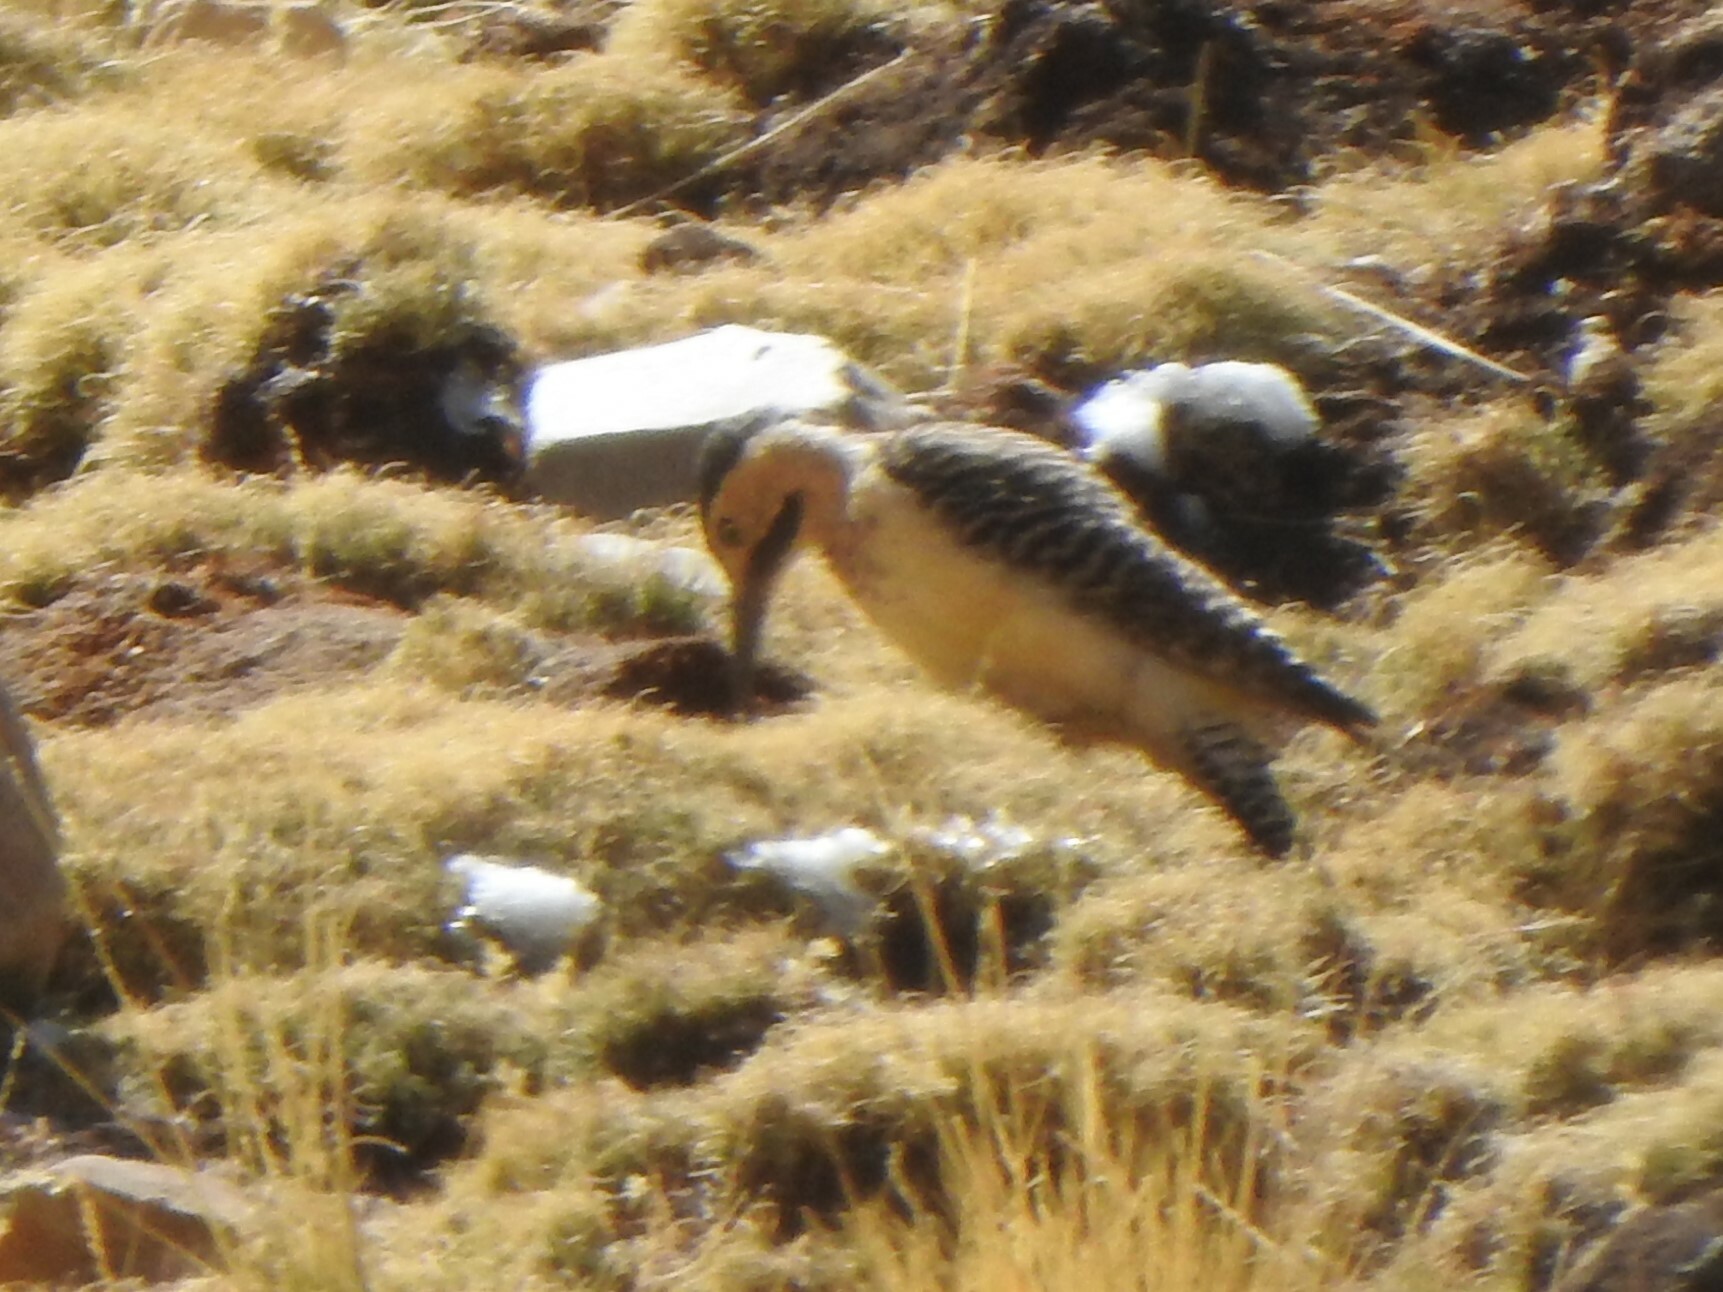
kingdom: Animalia
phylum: Chordata
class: Aves
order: Piciformes
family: Picidae
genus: Colaptes
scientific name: Colaptes rupicola
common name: Andean flicker
